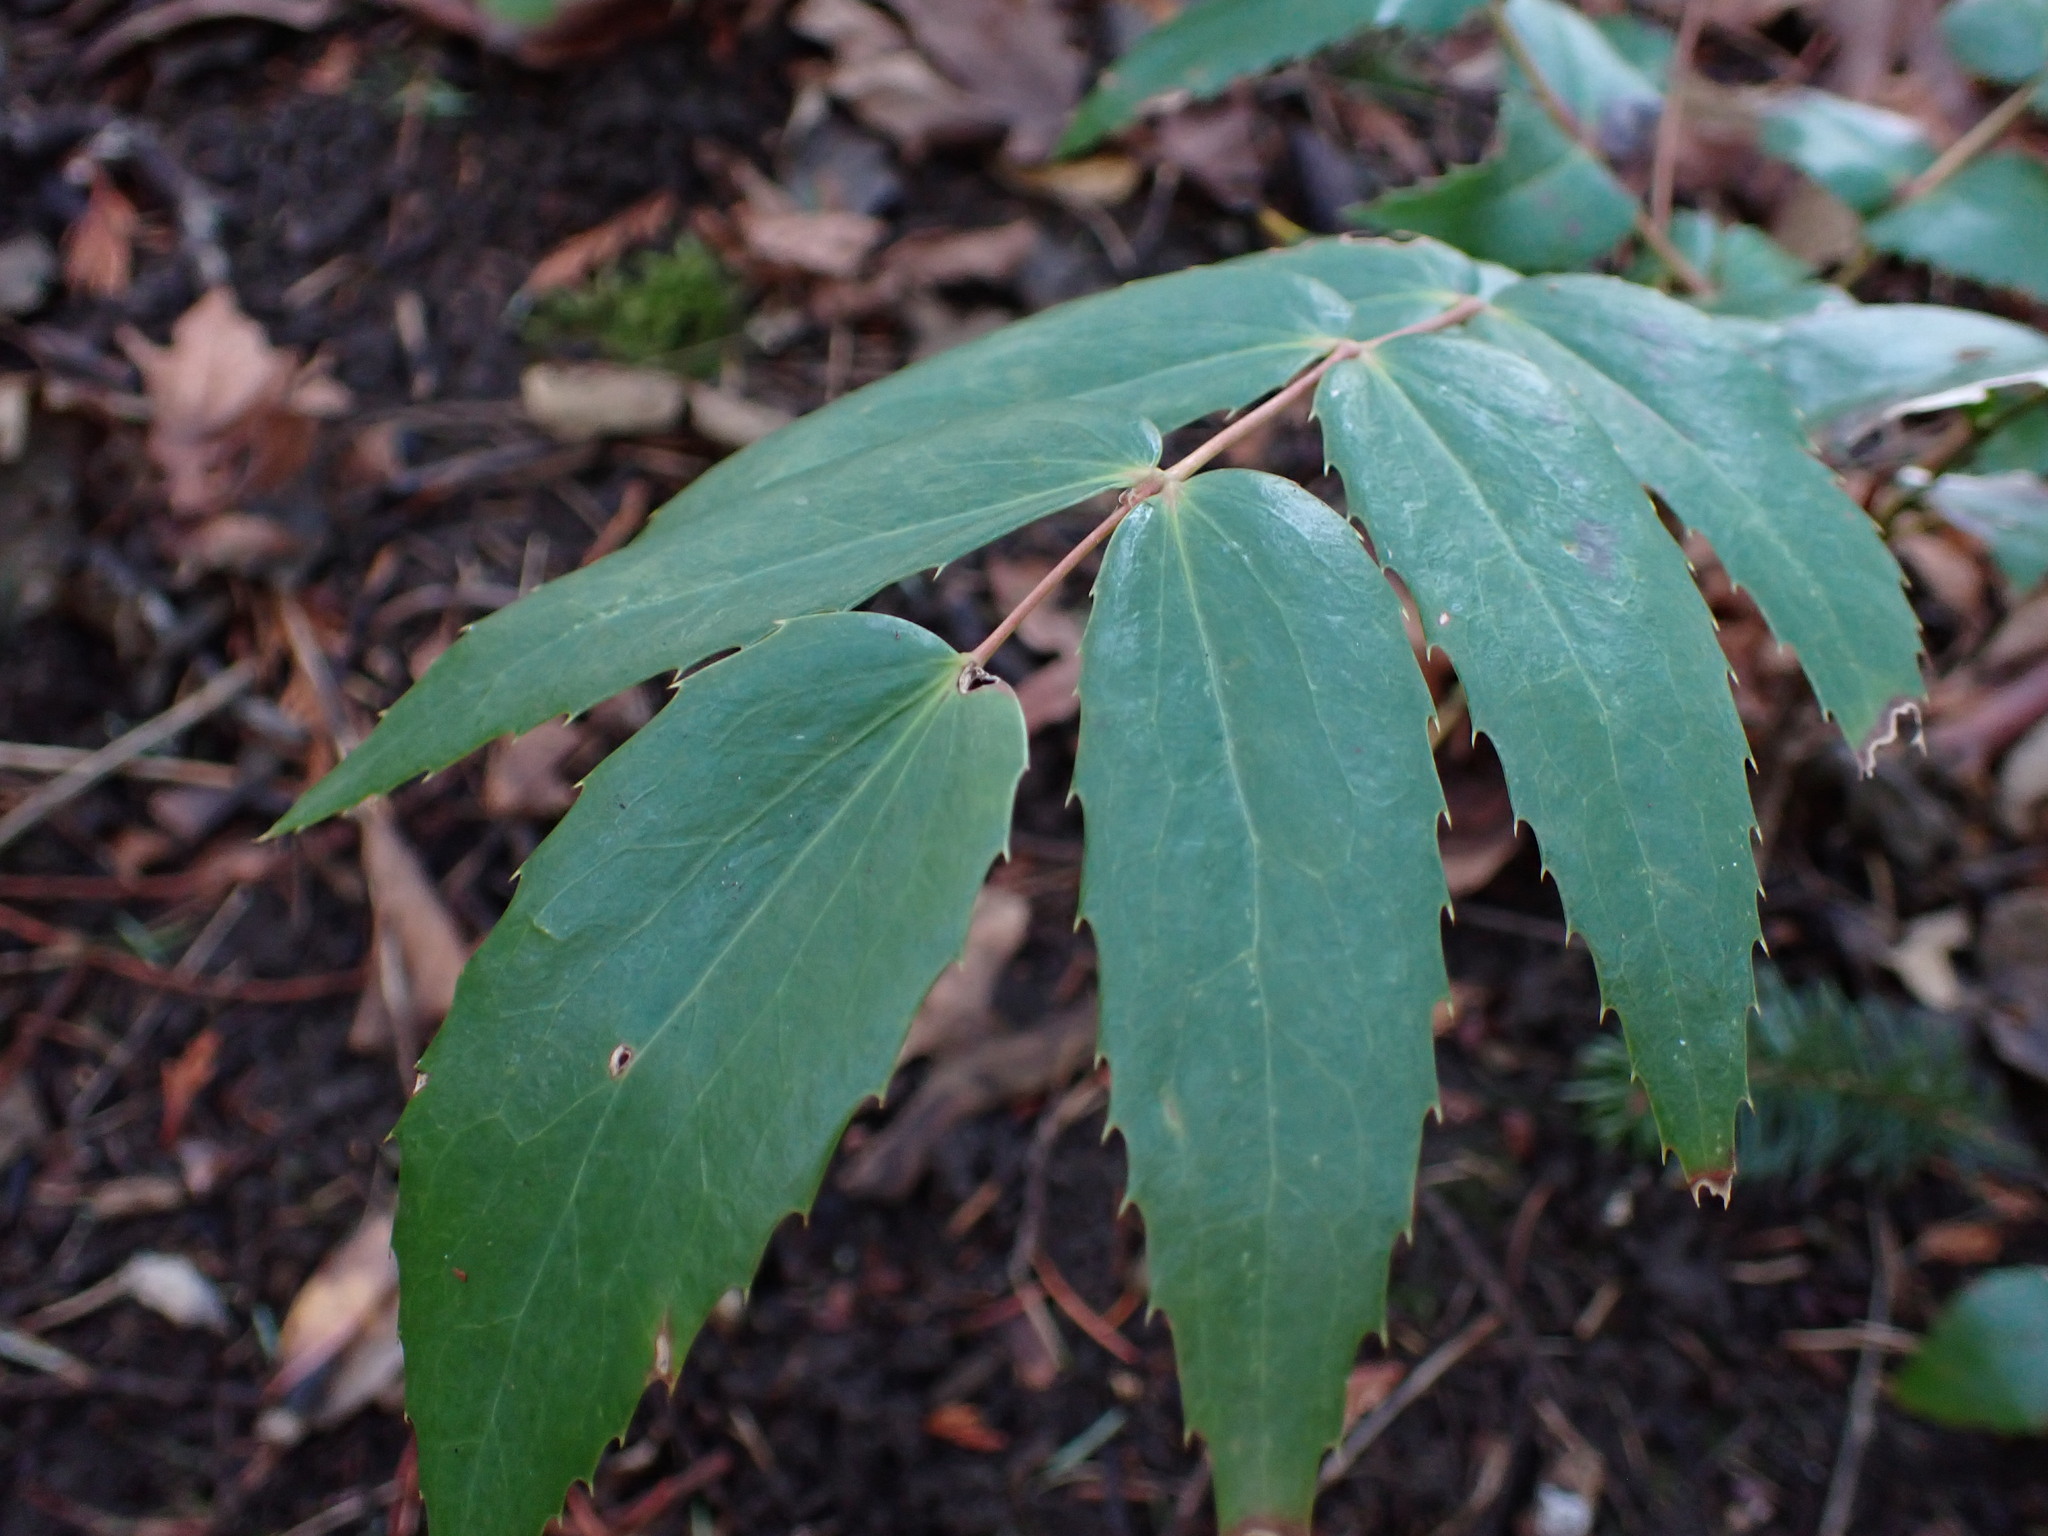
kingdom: Plantae
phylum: Tracheophyta
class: Magnoliopsida
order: Ranunculales
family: Berberidaceae
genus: Mahonia
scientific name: Mahonia nervosa
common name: Cascade oregon-grape
